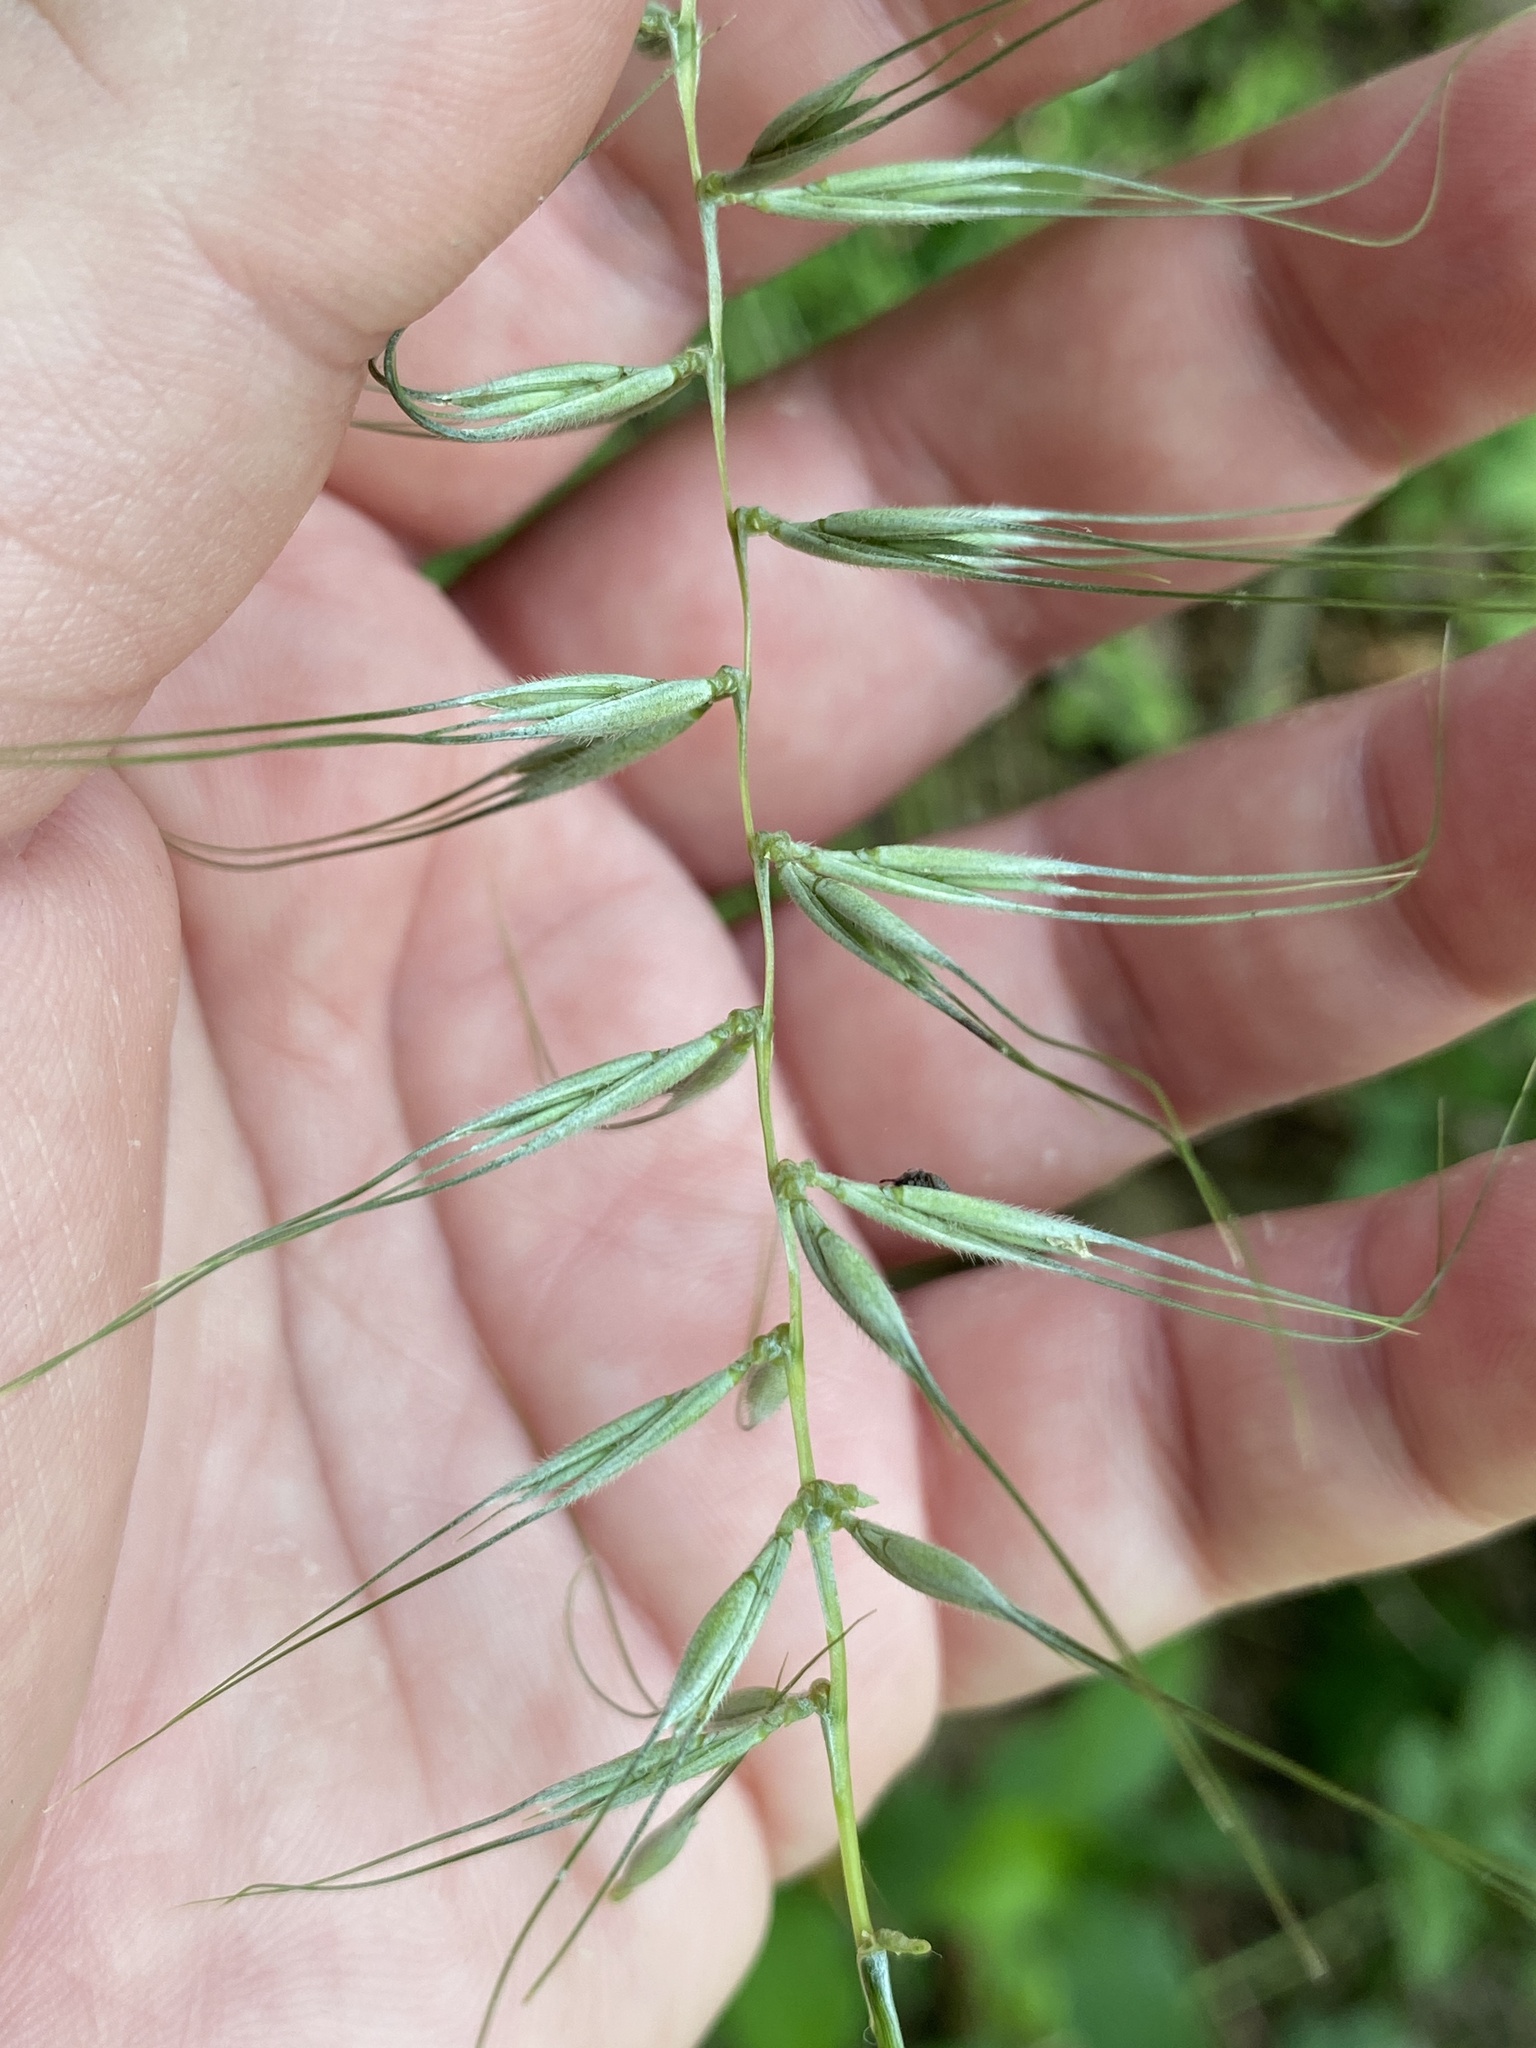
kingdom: Plantae
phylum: Tracheophyta
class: Liliopsida
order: Poales
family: Poaceae
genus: Elymus
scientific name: Elymus hystrix
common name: Bottlebrush grass
